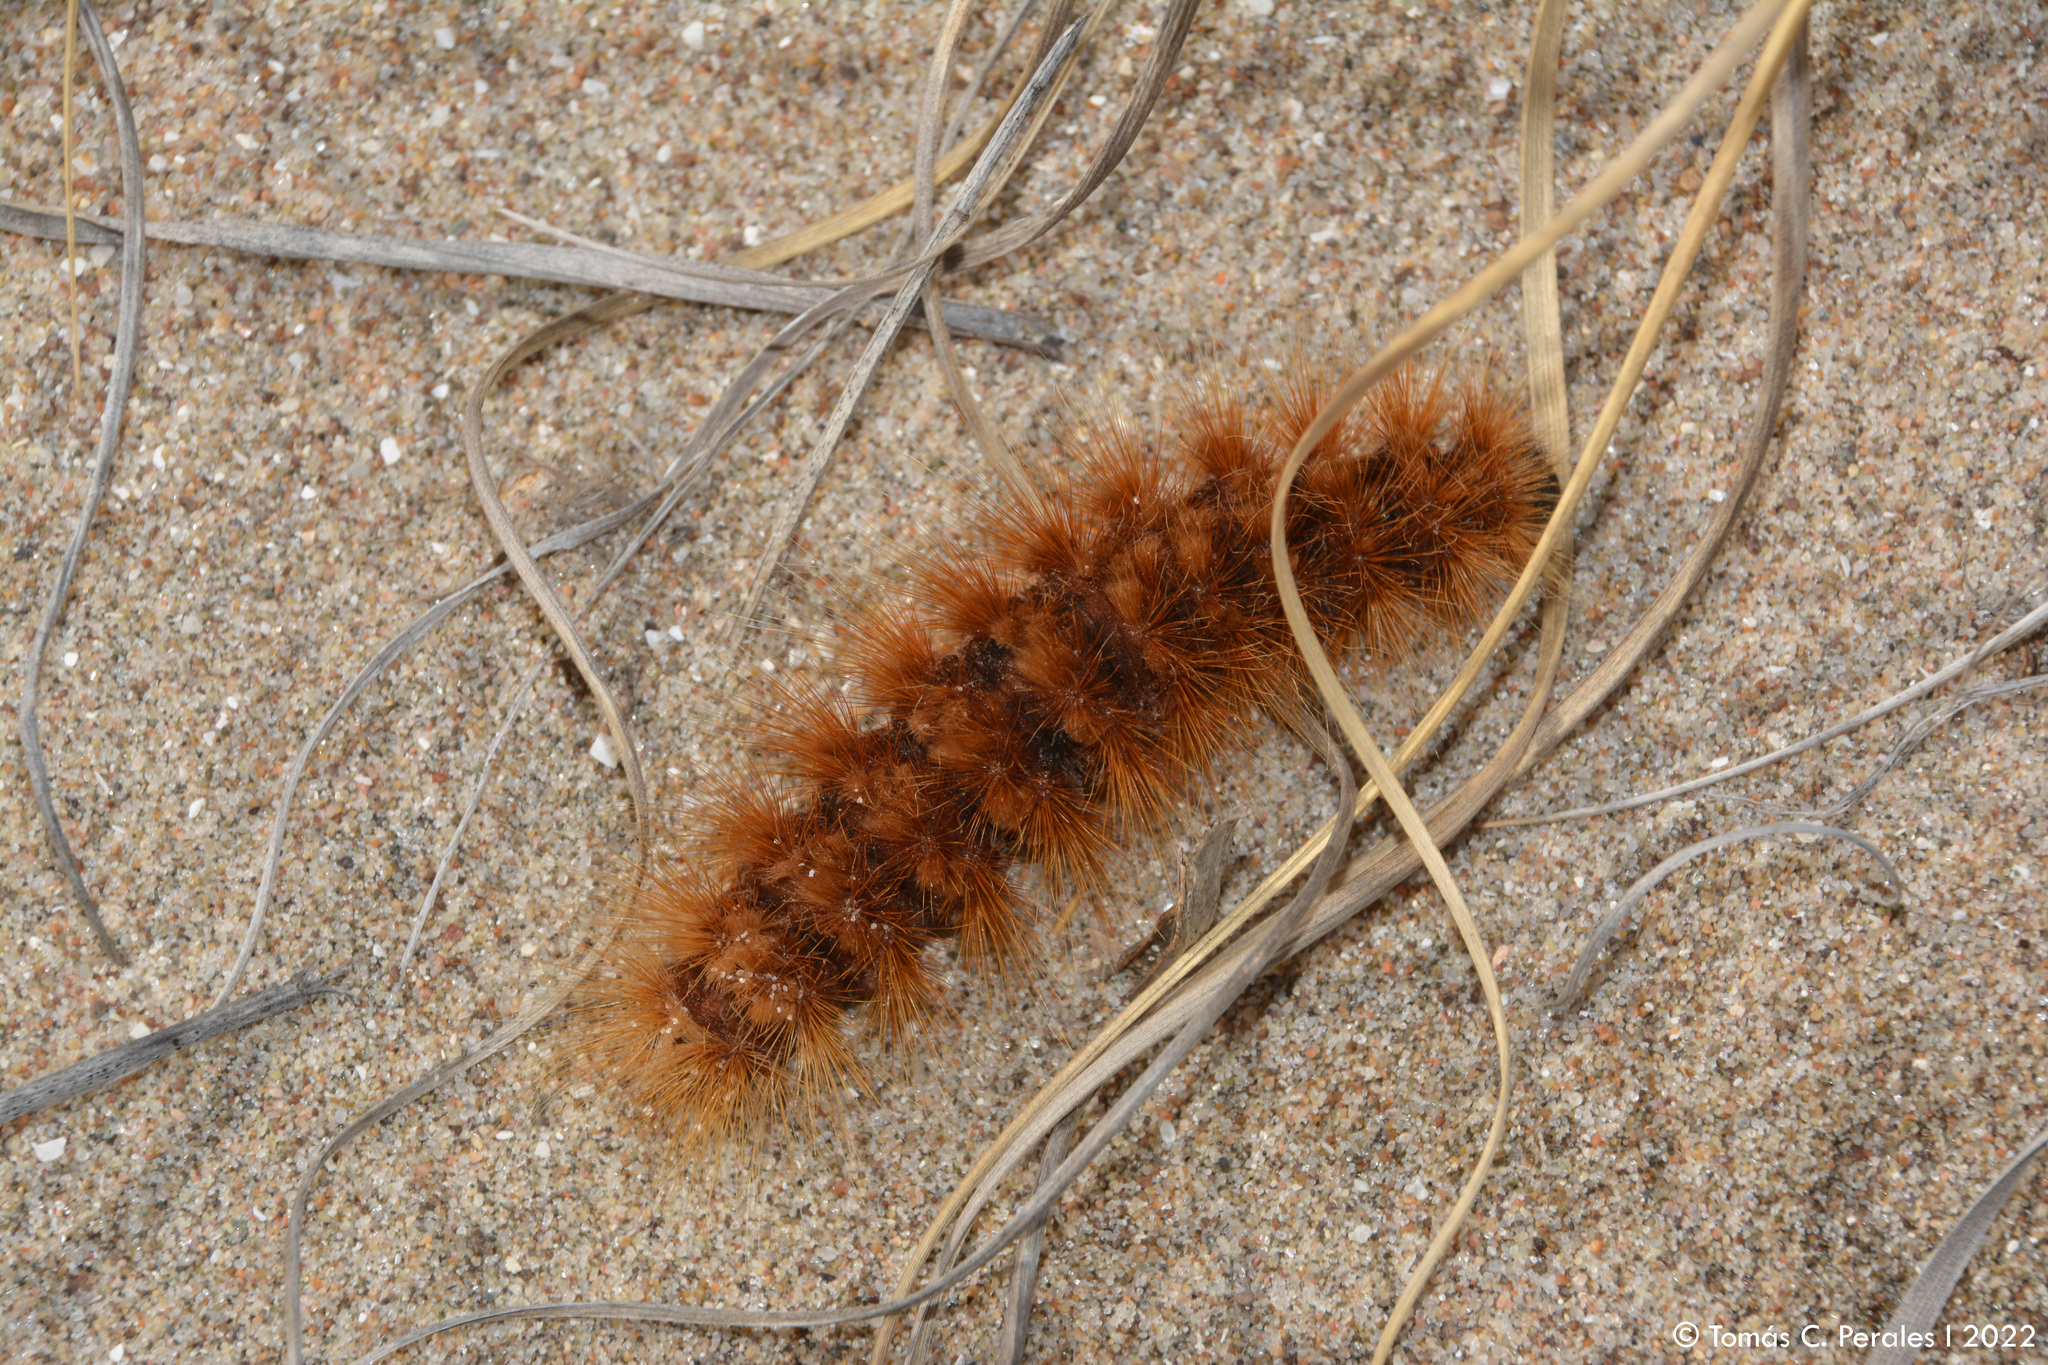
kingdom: Animalia
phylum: Arthropoda
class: Insecta
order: Lepidoptera
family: Erebidae
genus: Paracles
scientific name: Paracles severa
